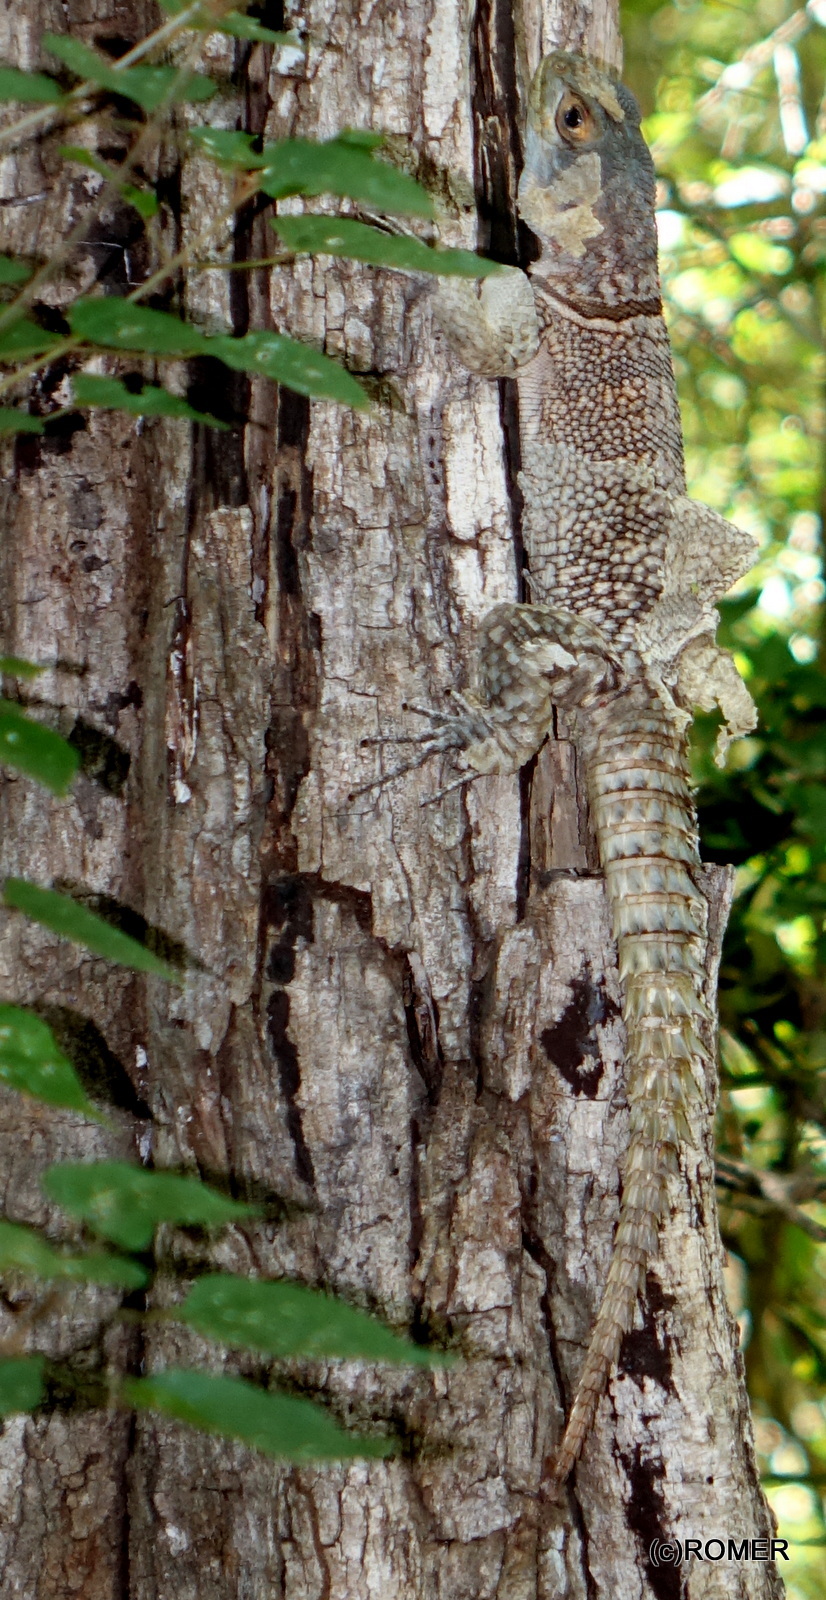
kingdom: Animalia
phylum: Chordata
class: Squamata
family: Opluridae
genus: Oplurus
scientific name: Oplurus cyclurus
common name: Merrem's madagascar swift
